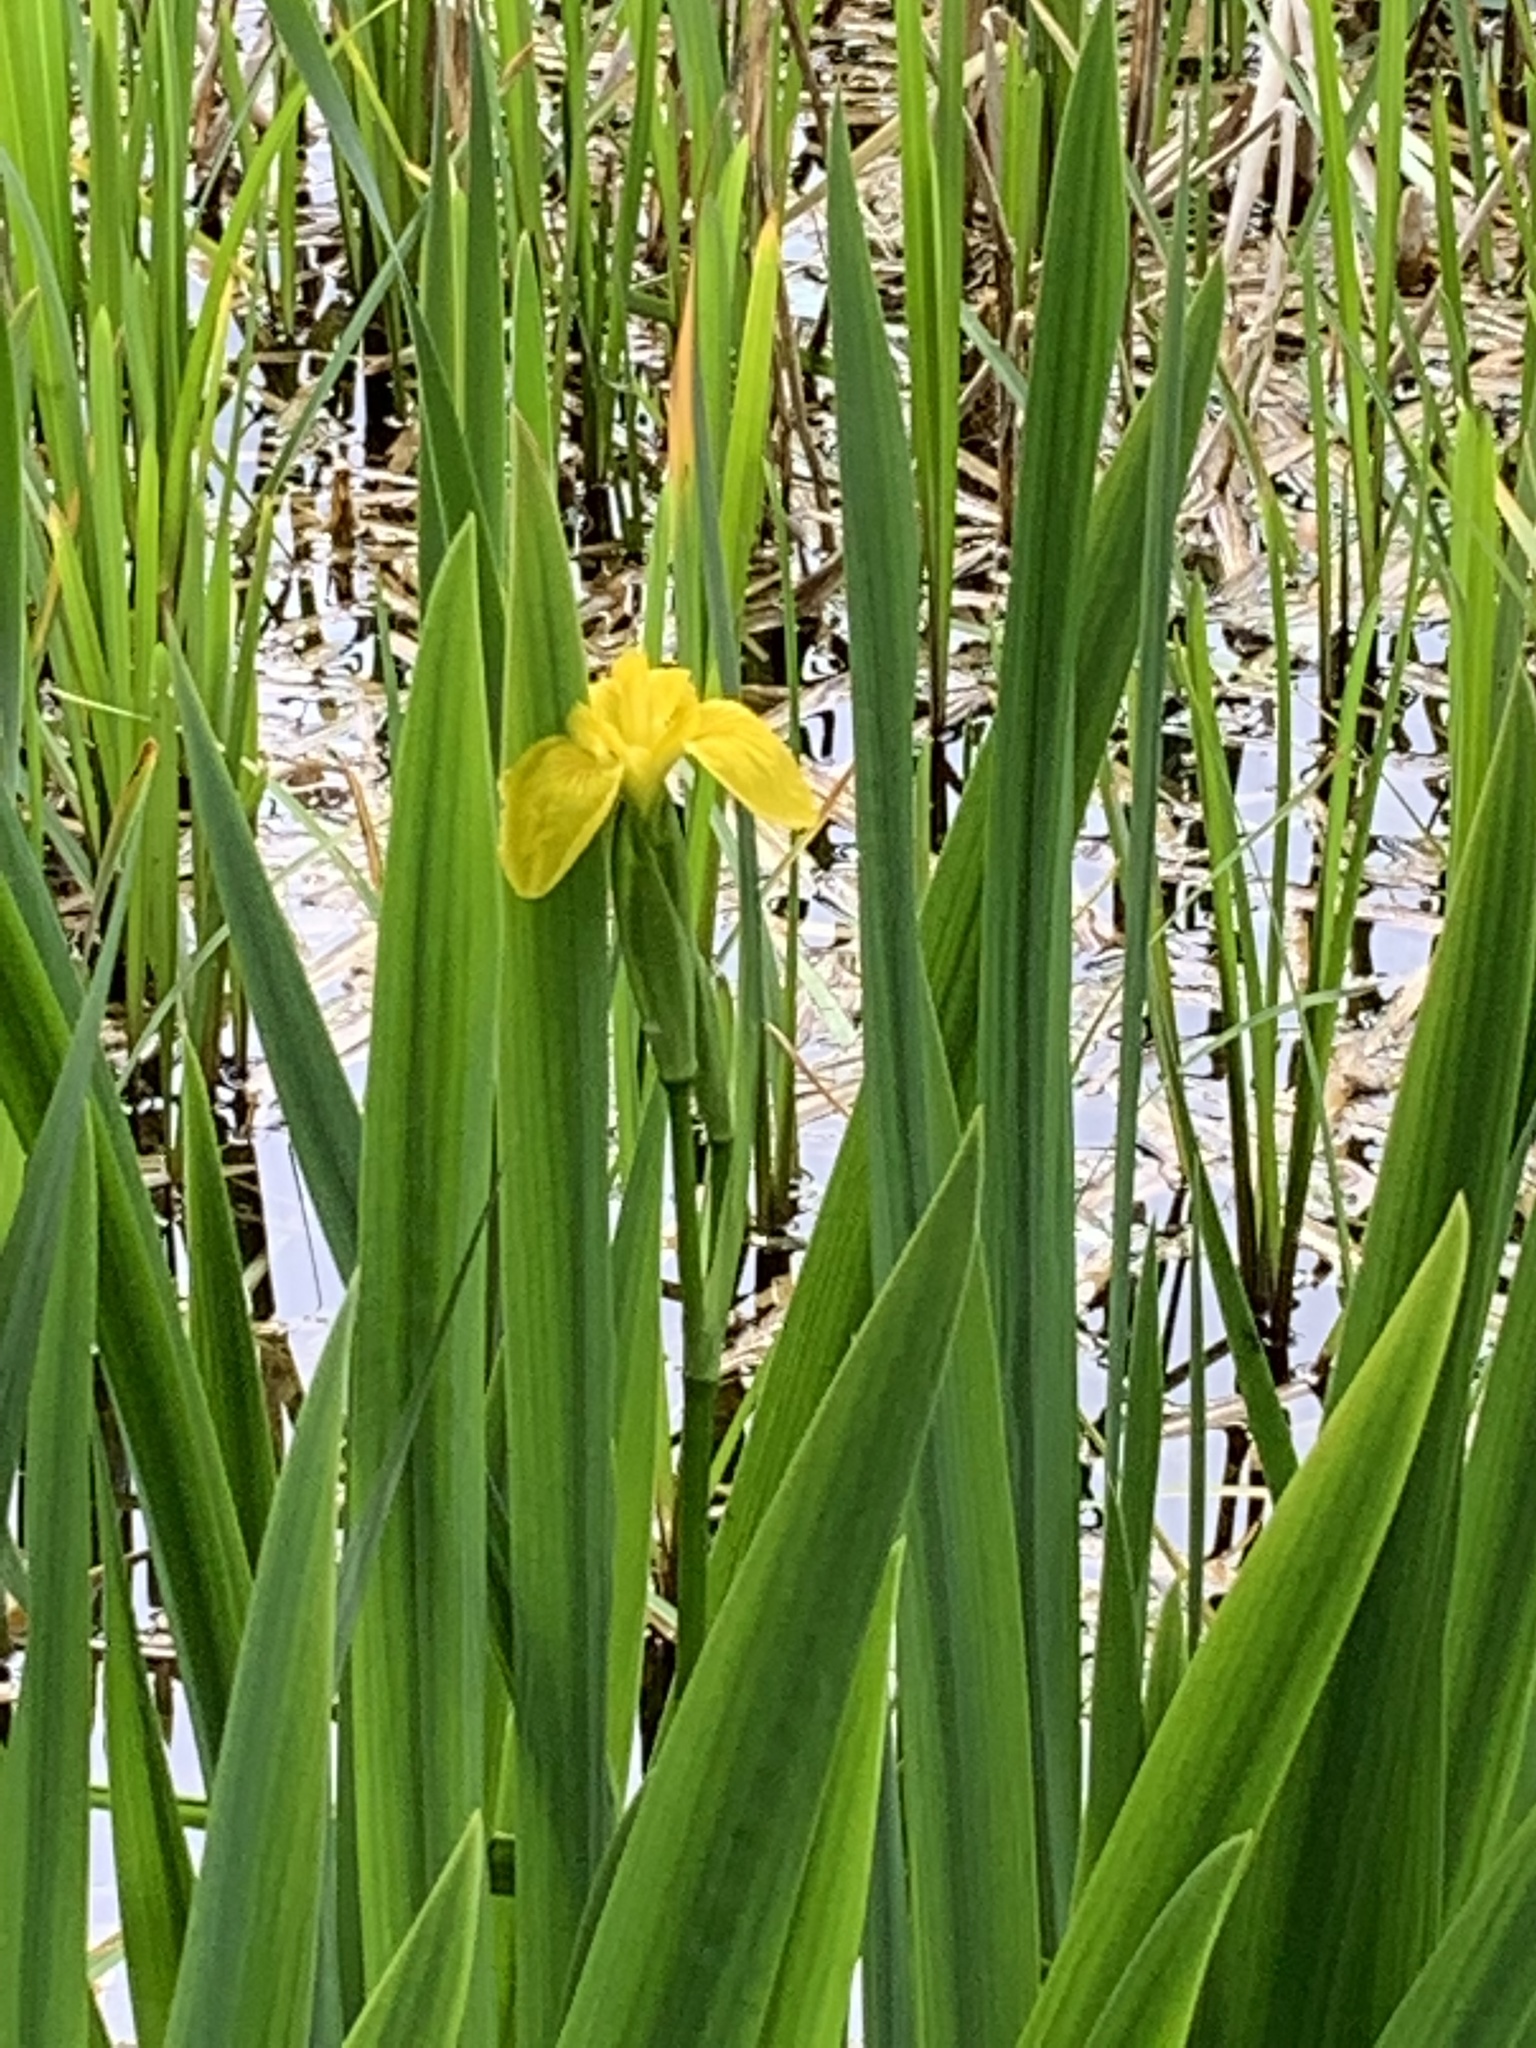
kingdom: Plantae
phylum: Tracheophyta
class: Liliopsida
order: Asparagales
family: Iridaceae
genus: Iris
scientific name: Iris pseudacorus
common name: Yellow flag
